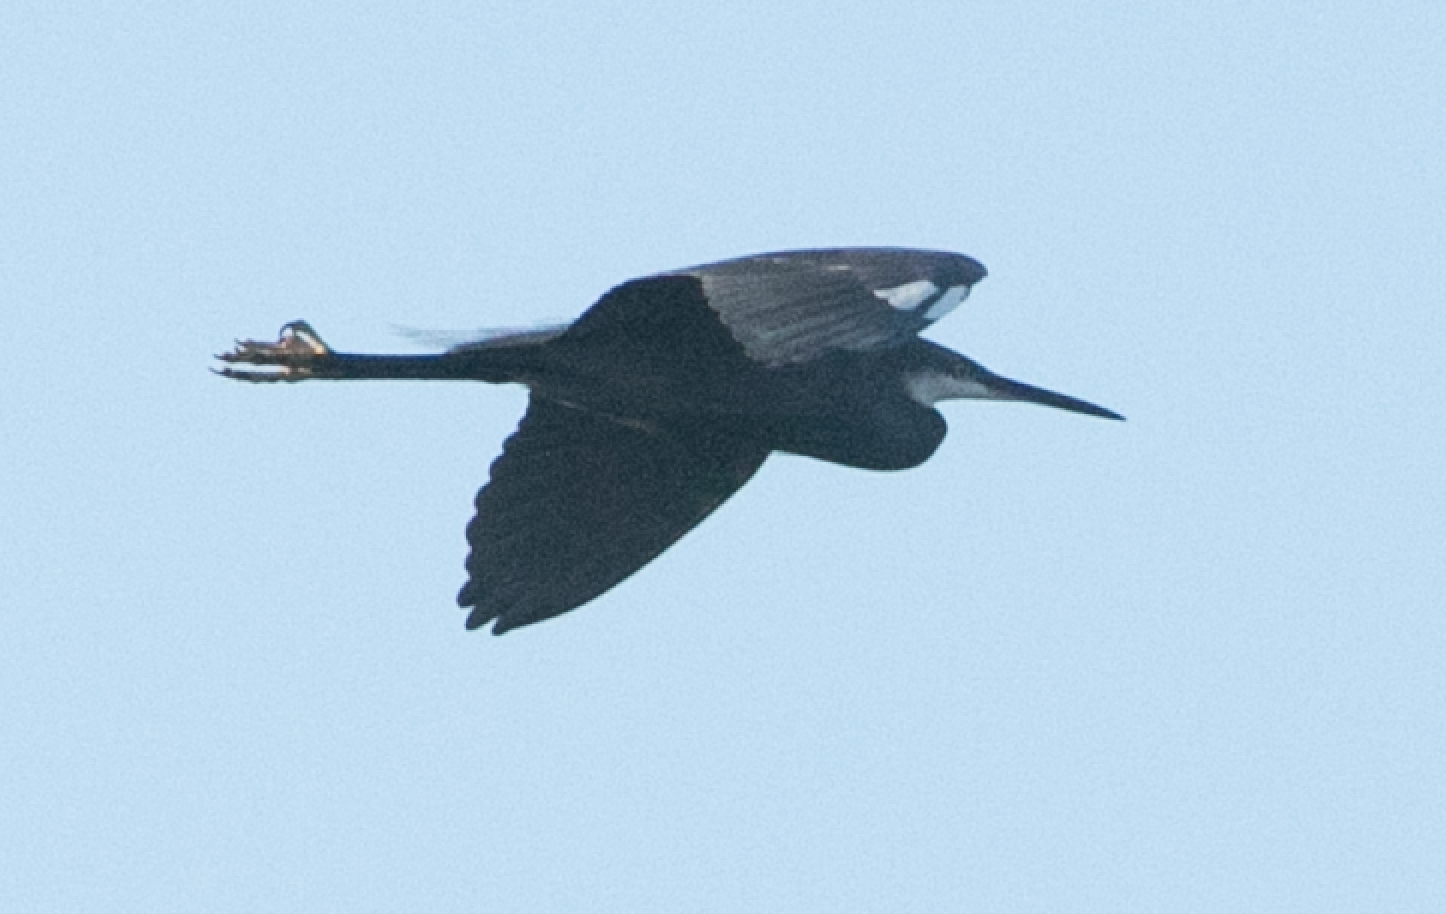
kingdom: Animalia
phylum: Chordata
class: Aves
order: Pelecaniformes
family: Ardeidae
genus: Egretta
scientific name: Egretta gularis
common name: Western reef-heron
